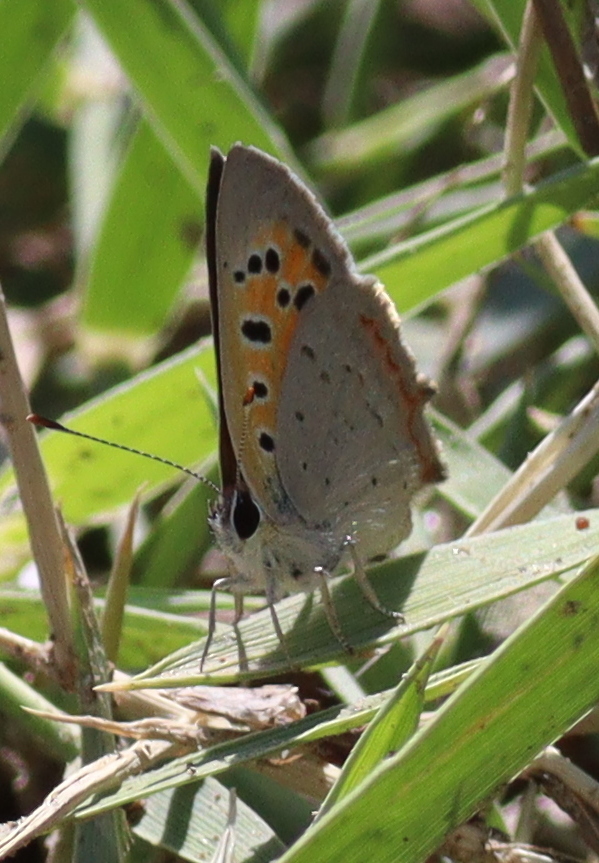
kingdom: Animalia
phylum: Arthropoda
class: Insecta
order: Lepidoptera
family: Lycaenidae
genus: Lycaena
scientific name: Lycaena phlaeas
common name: Small copper
